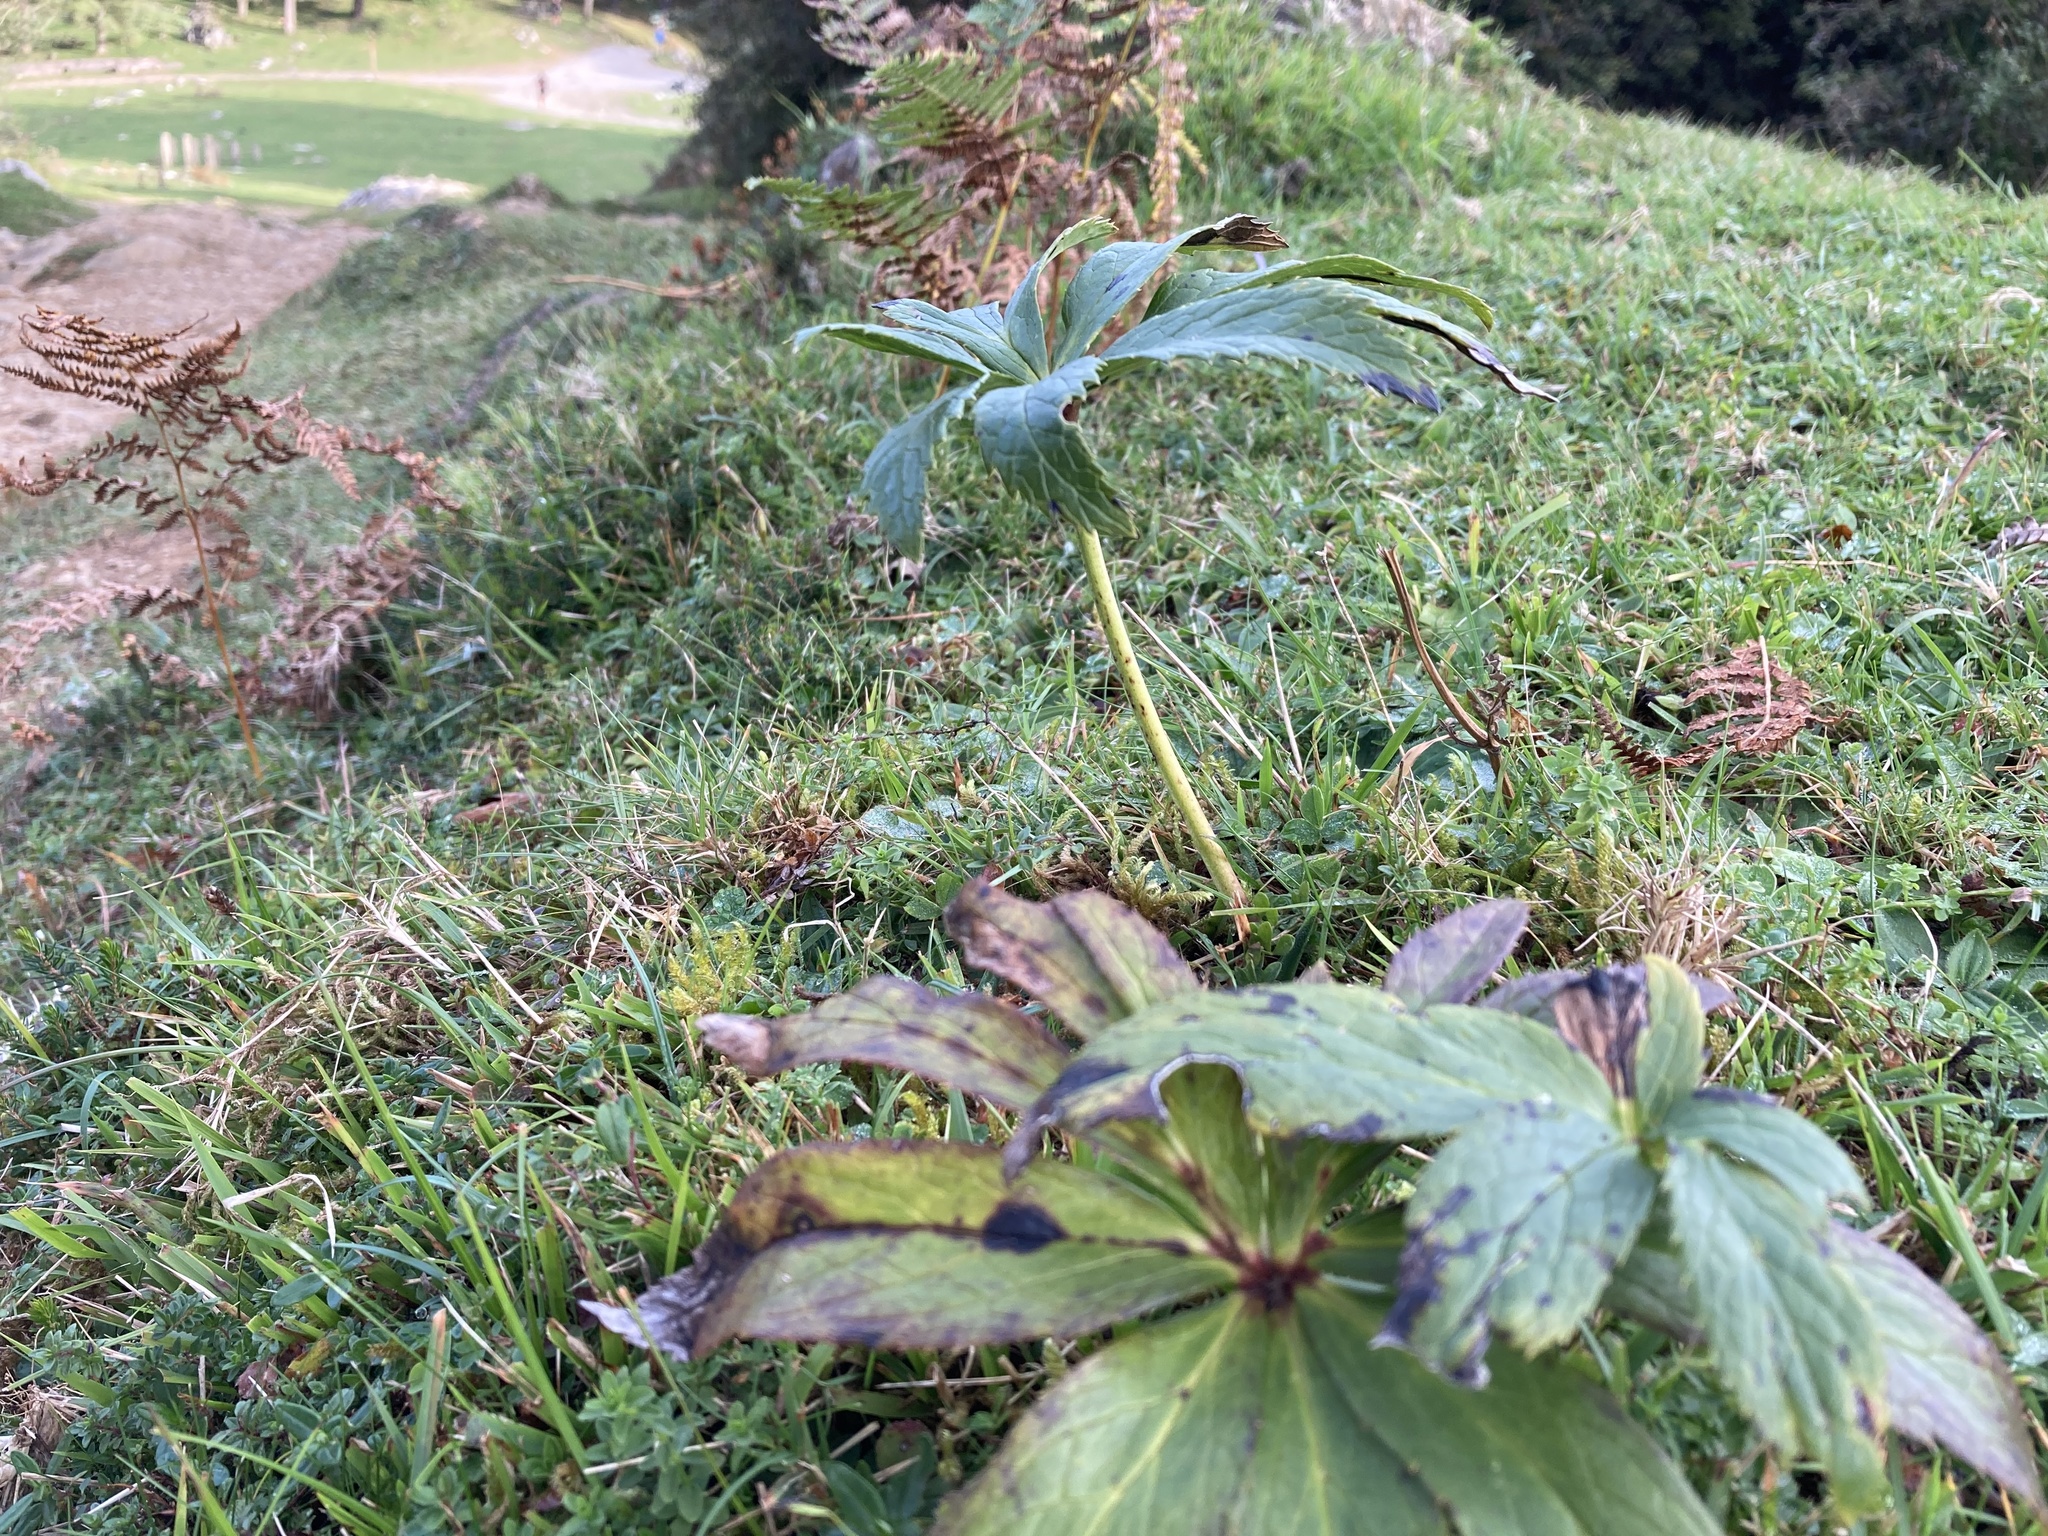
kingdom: Plantae
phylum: Tracheophyta
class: Magnoliopsida
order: Ranunculales
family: Ranunculaceae
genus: Helleborus
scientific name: Helleborus viridis
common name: Green hellebore
